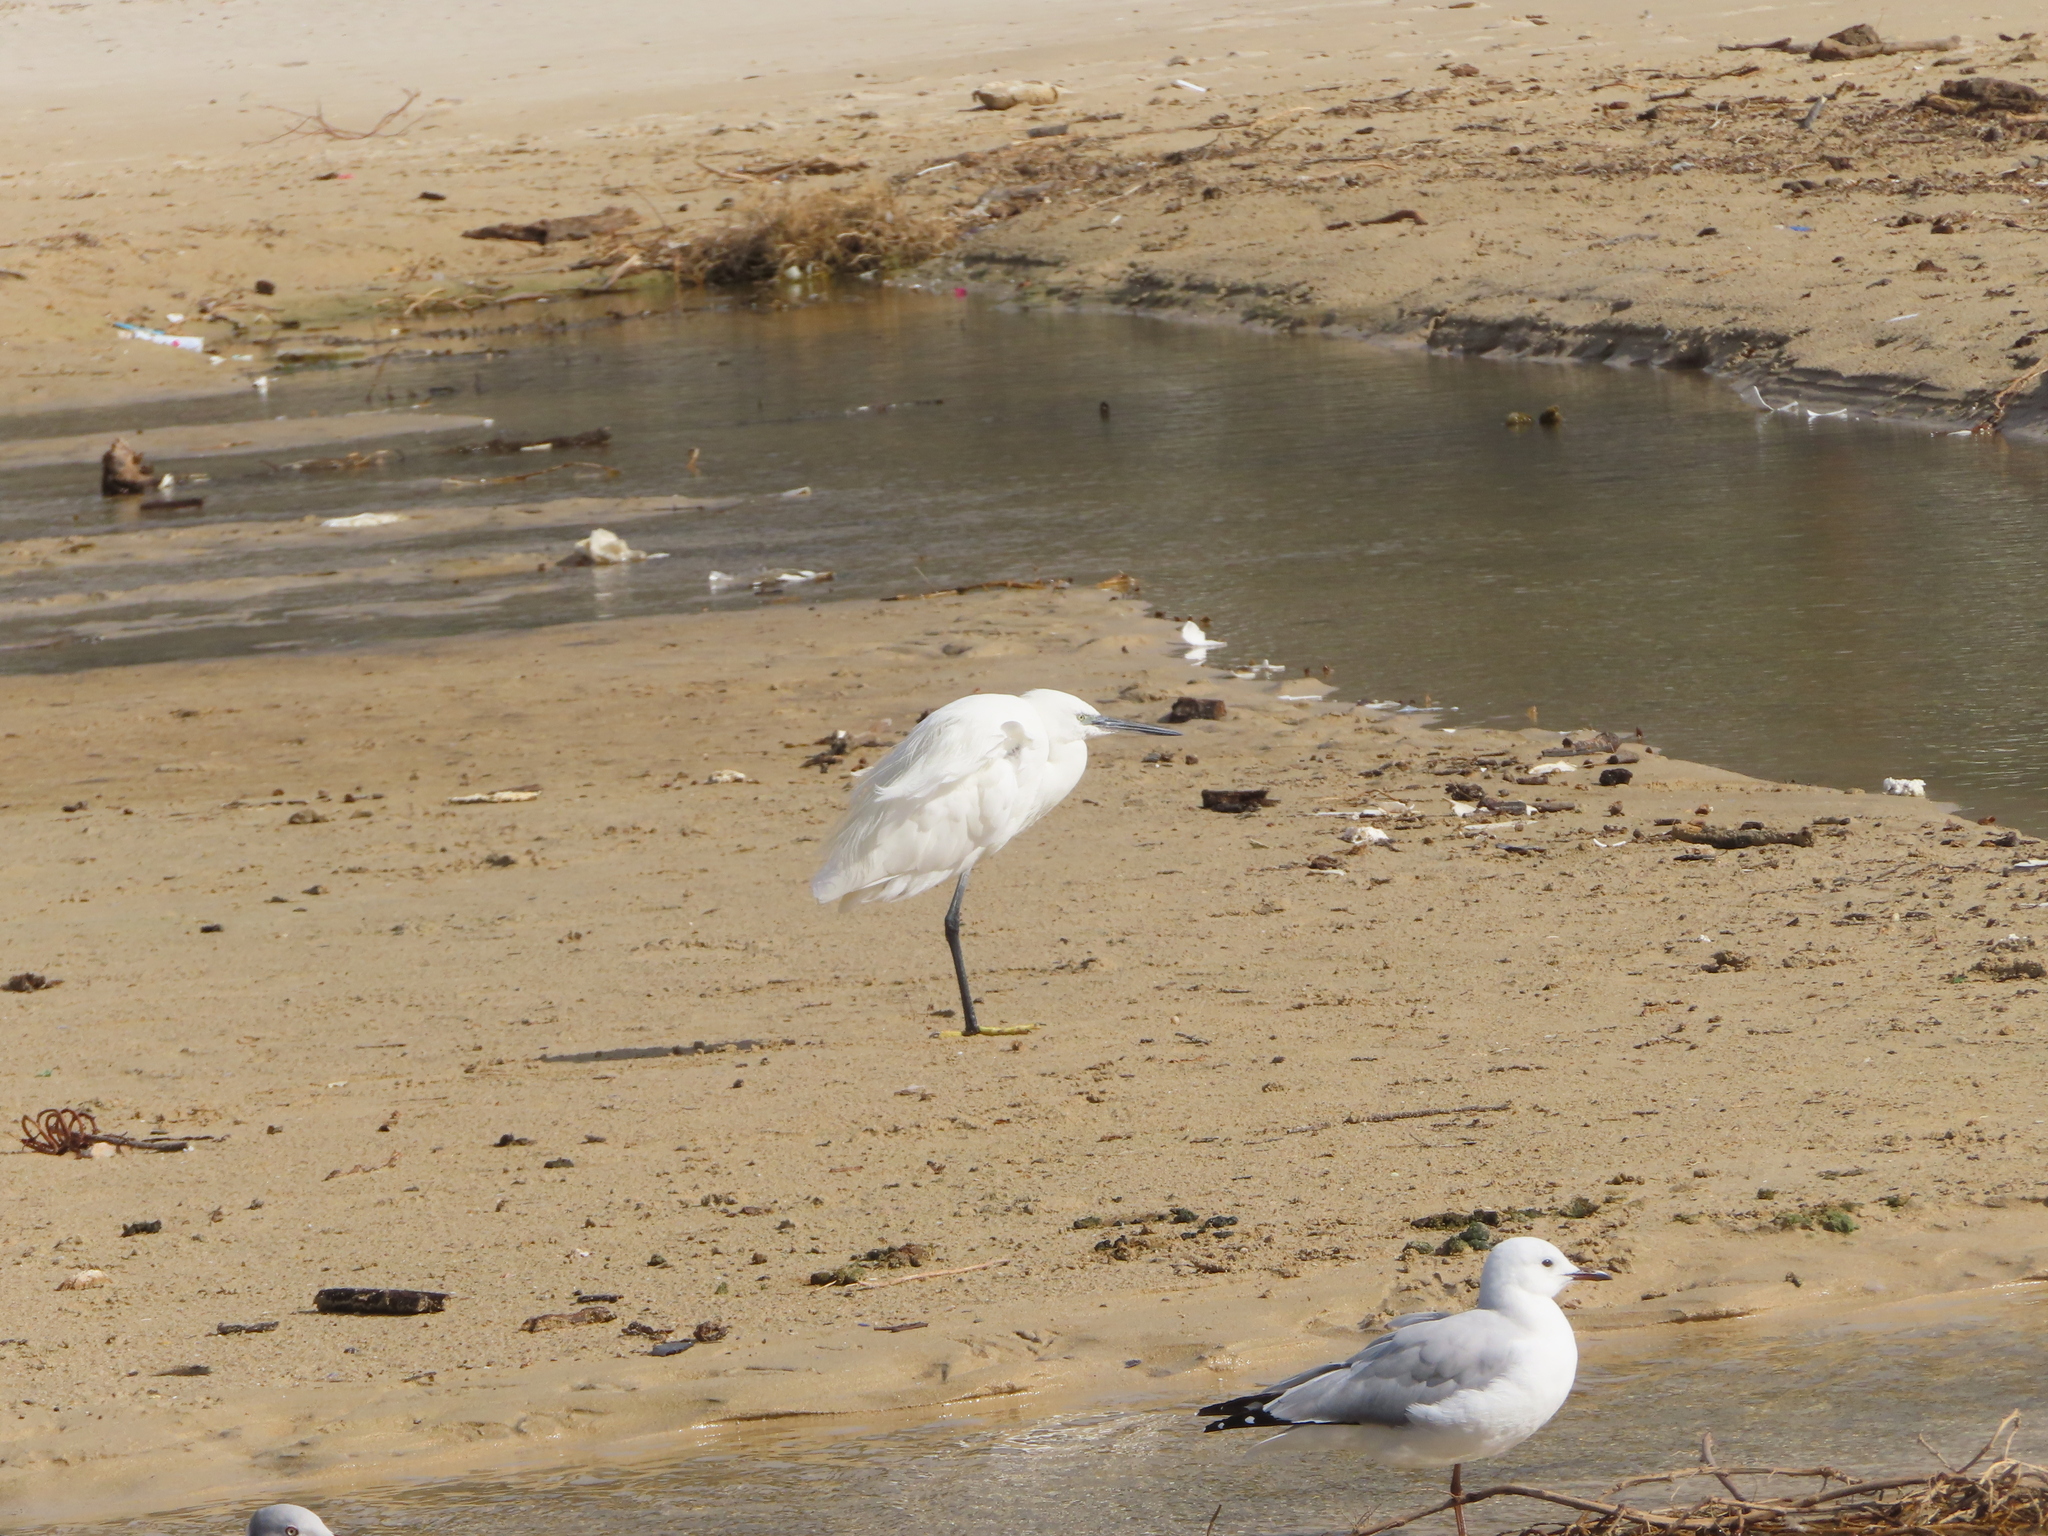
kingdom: Animalia
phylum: Chordata
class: Aves
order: Pelecaniformes
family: Ardeidae
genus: Egretta
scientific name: Egretta garzetta
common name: Little egret
